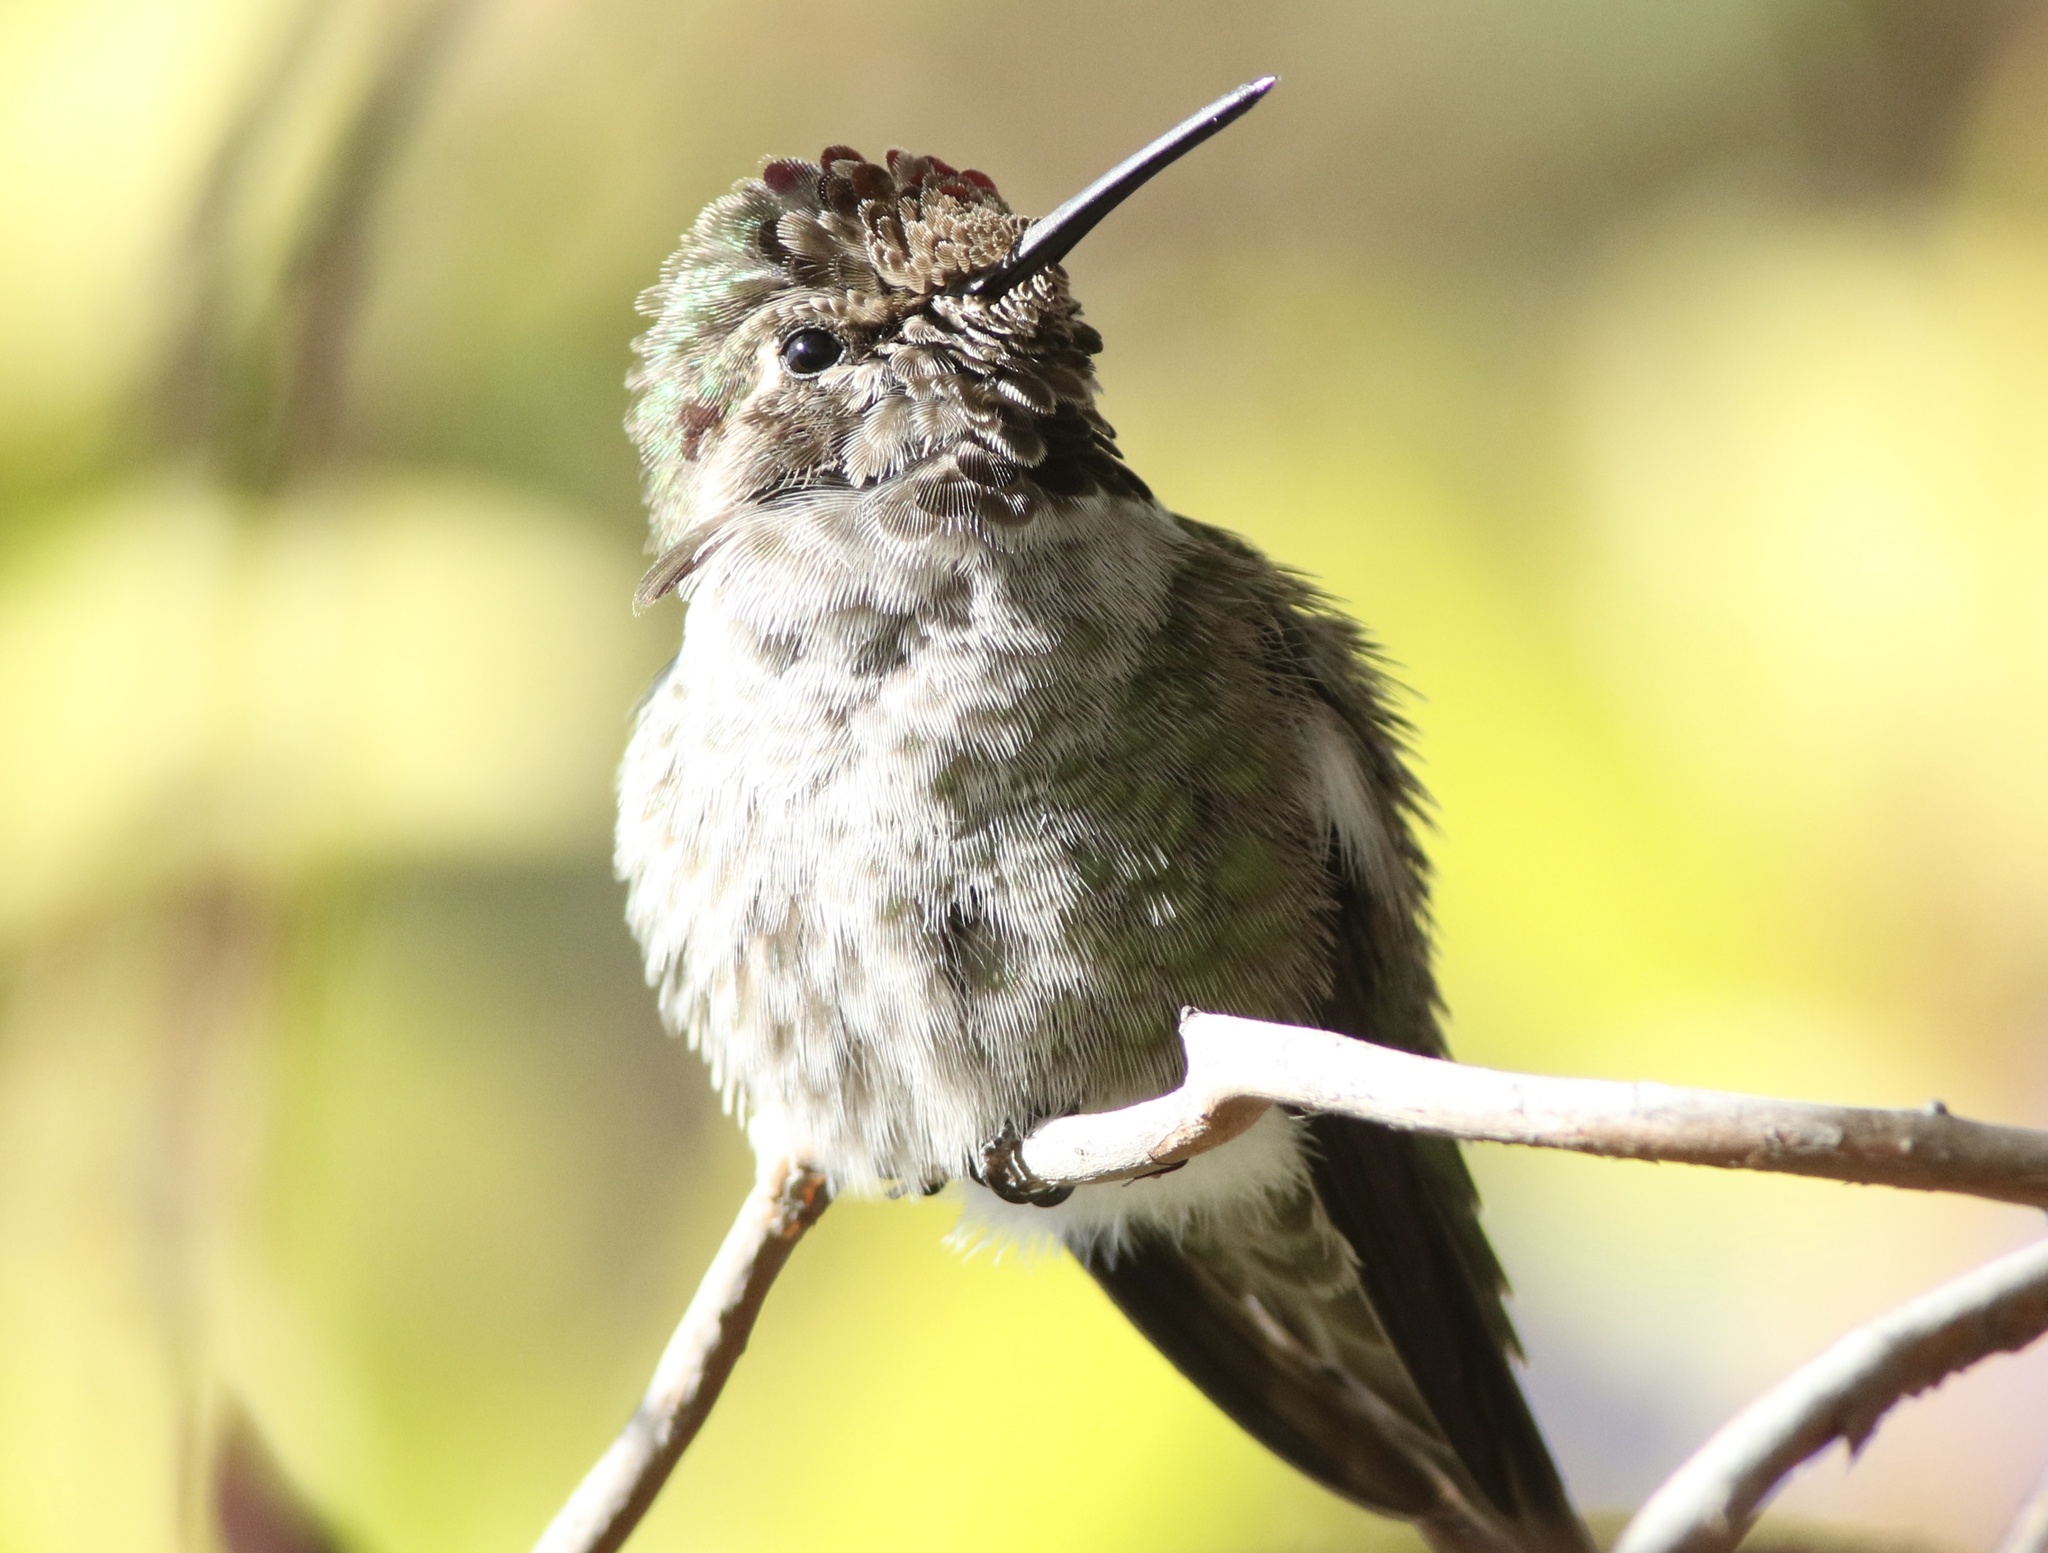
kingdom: Animalia
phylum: Chordata
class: Aves
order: Apodiformes
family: Trochilidae
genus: Calypte
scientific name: Calypte anna
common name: Anna's hummingbird
